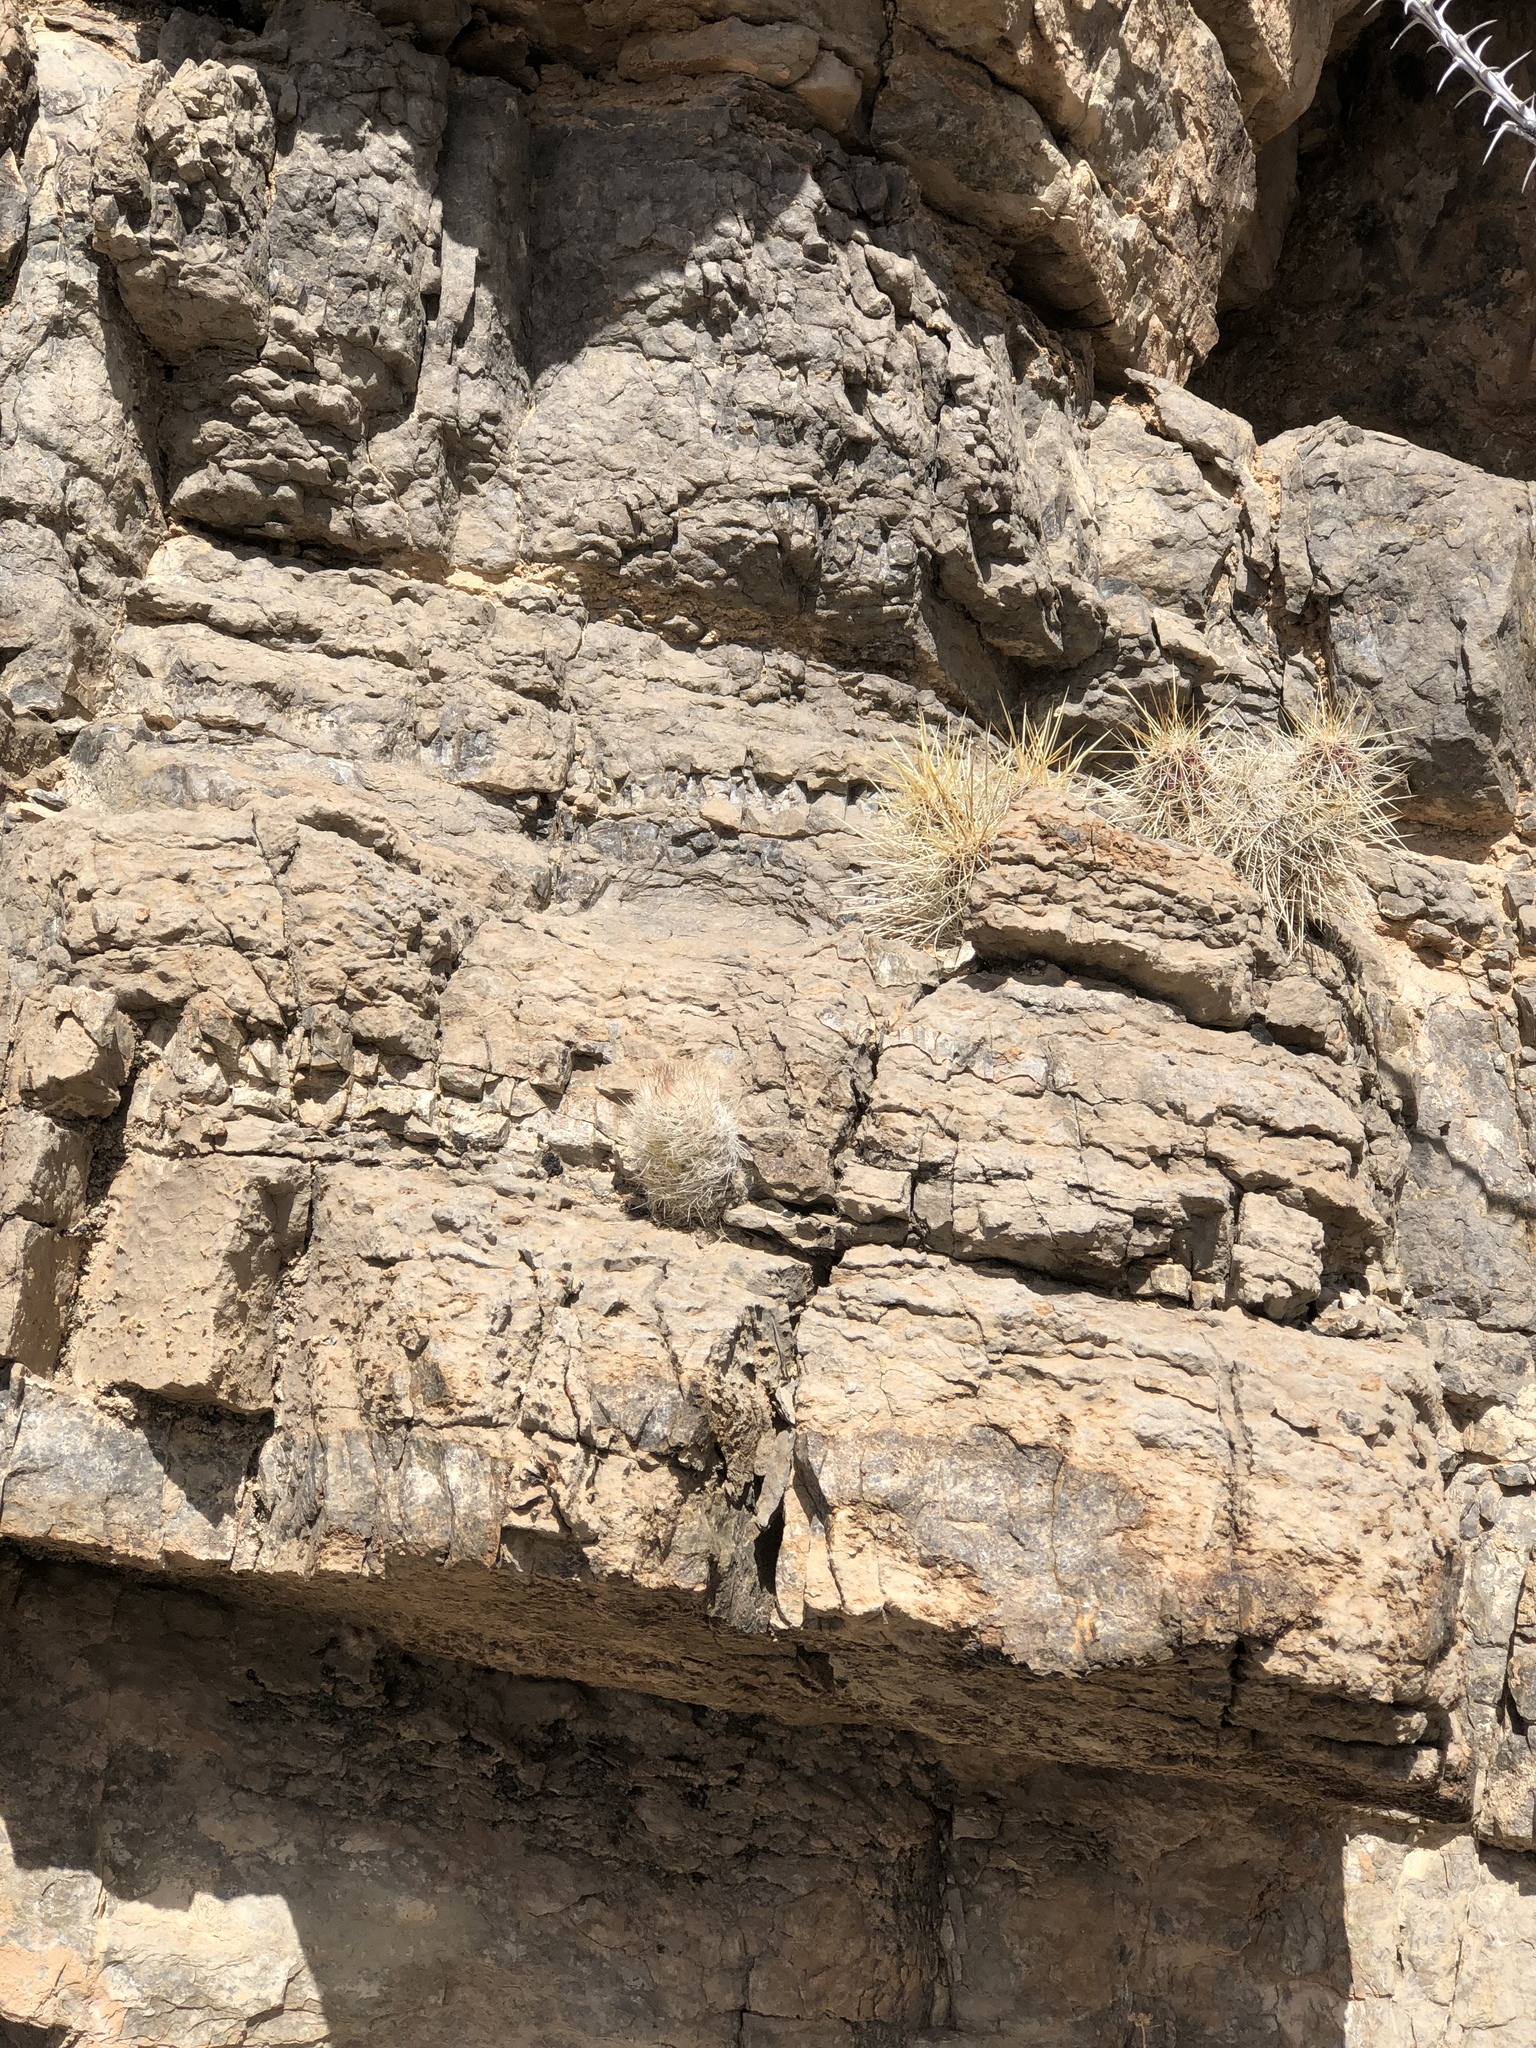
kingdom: Plantae
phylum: Tracheophyta
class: Magnoliopsida
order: Caryophyllales
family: Cactaceae
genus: Pelecyphora
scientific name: Pelecyphora tuberculosa
